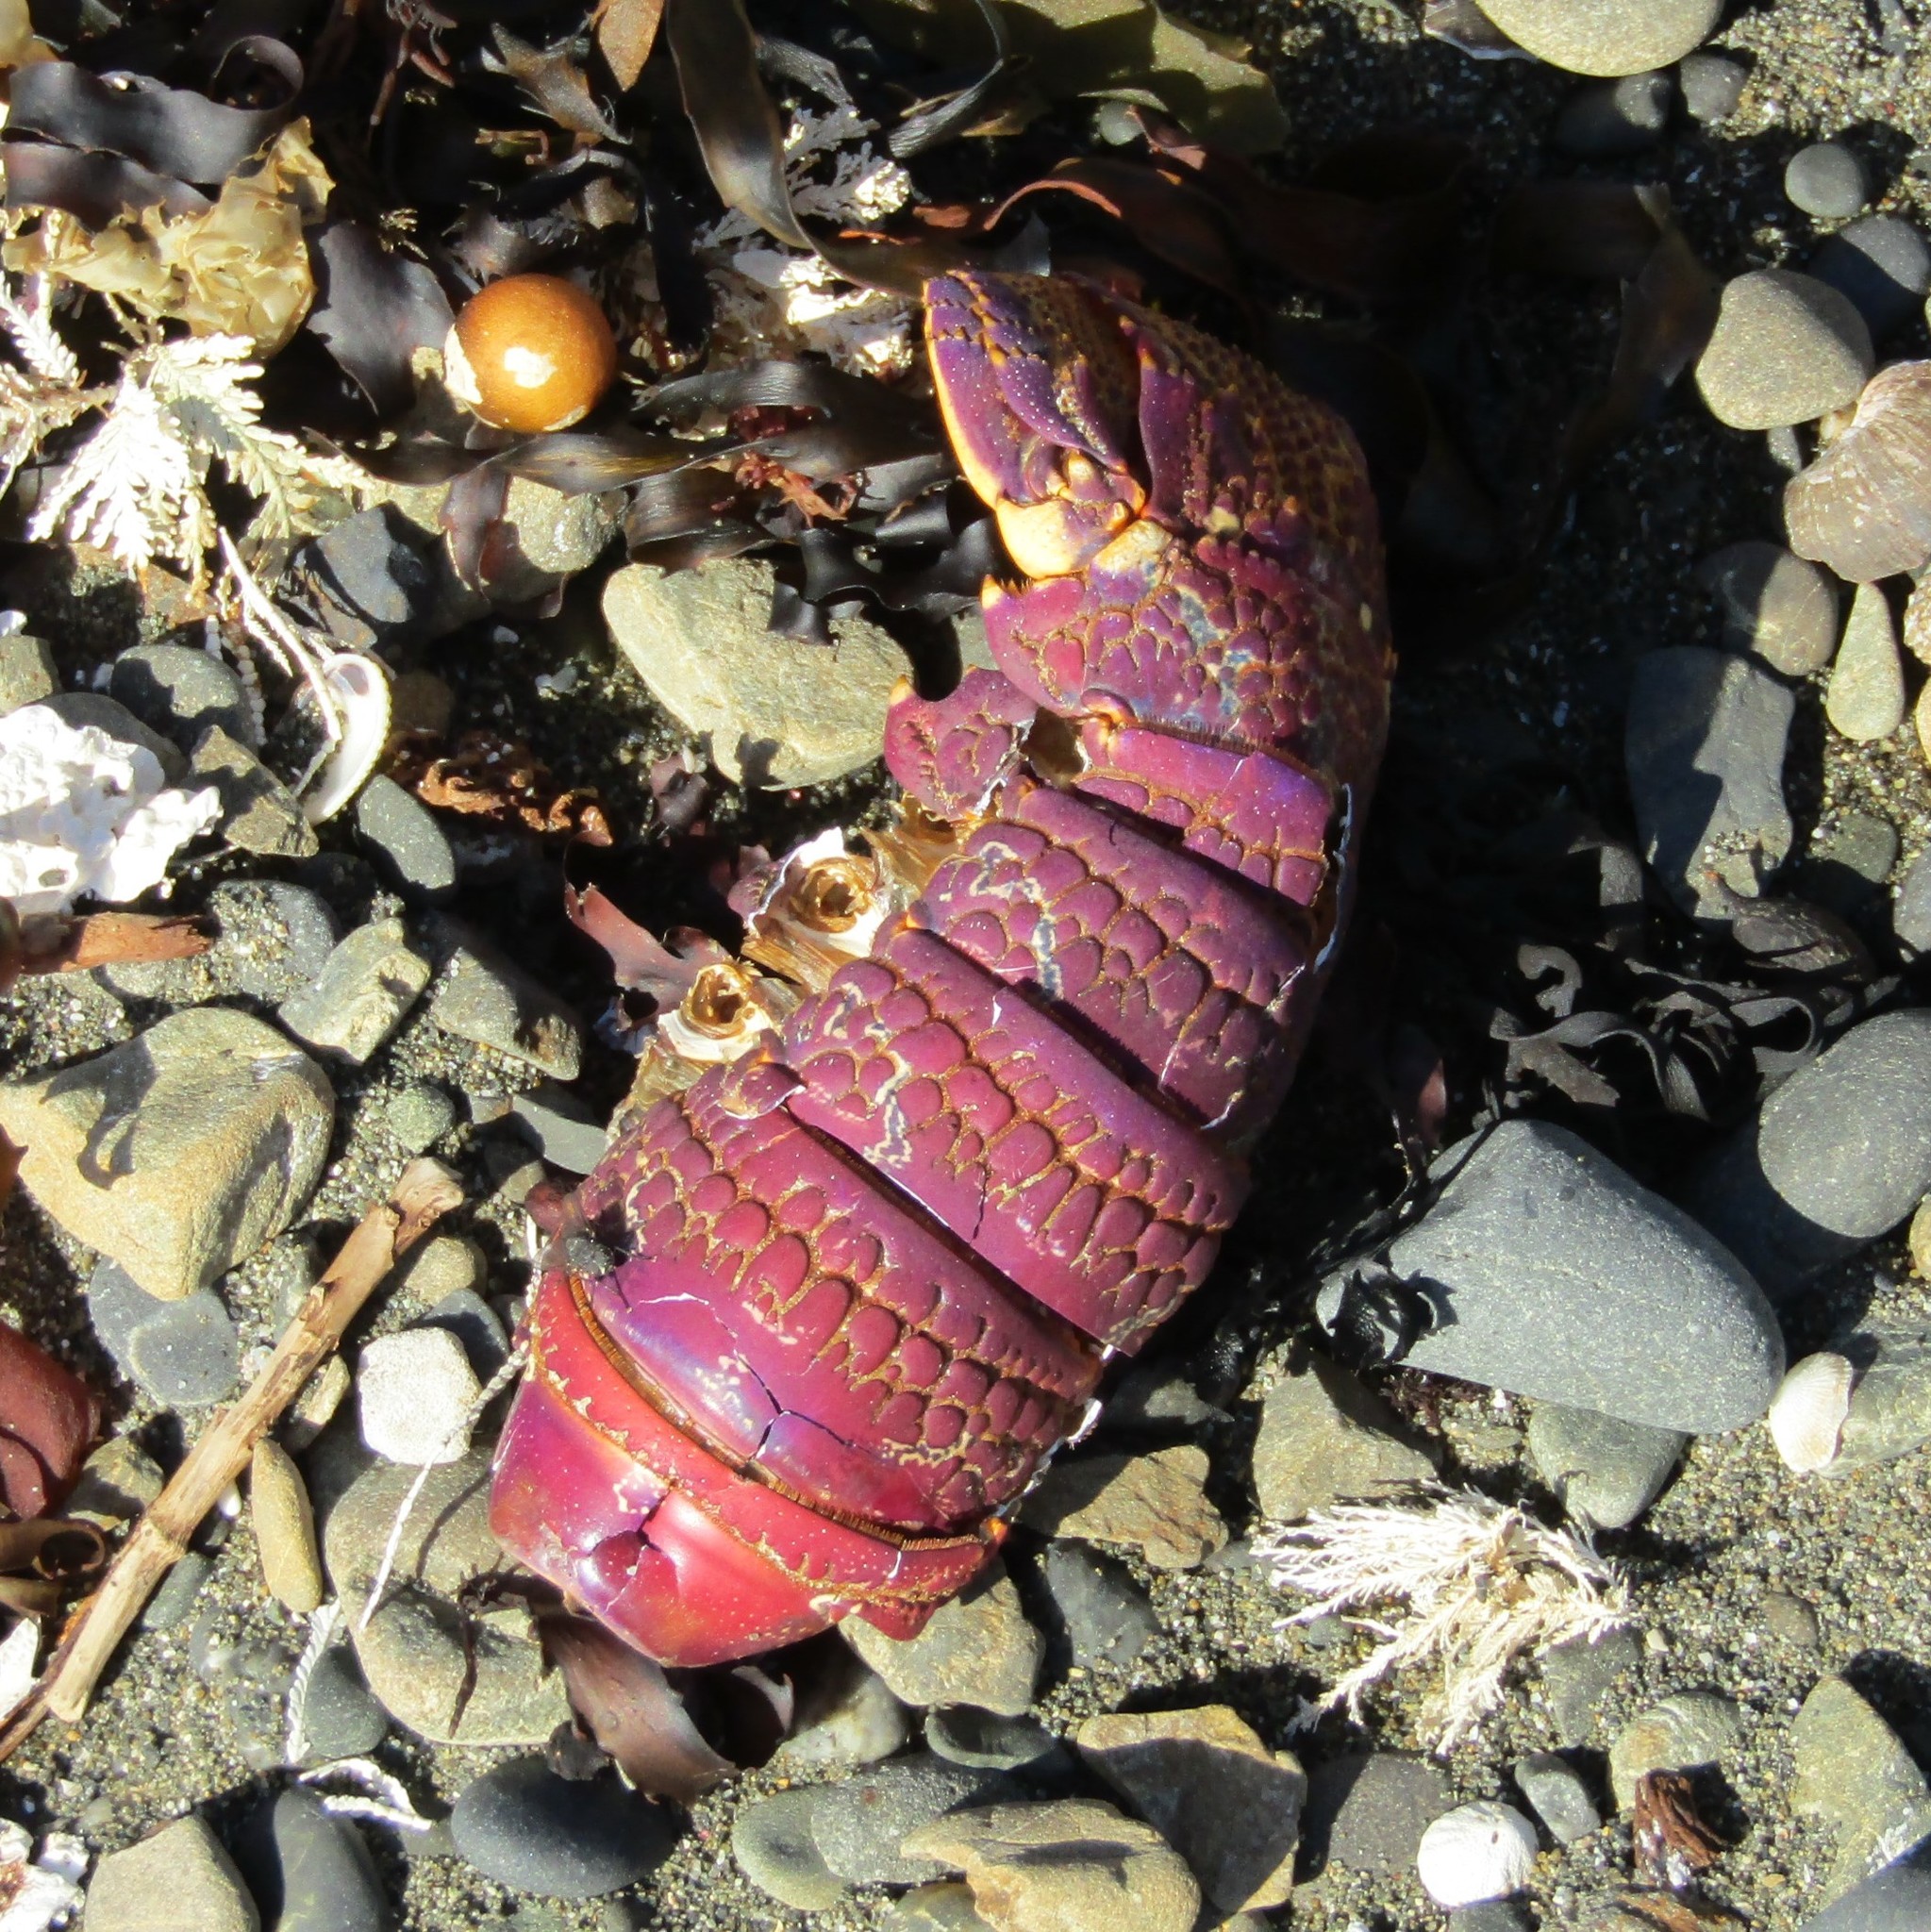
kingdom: Animalia
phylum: Arthropoda
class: Malacostraca
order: Decapoda
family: Palinuridae
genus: Jasus
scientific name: Jasus edwardsii
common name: Red rock lobster
